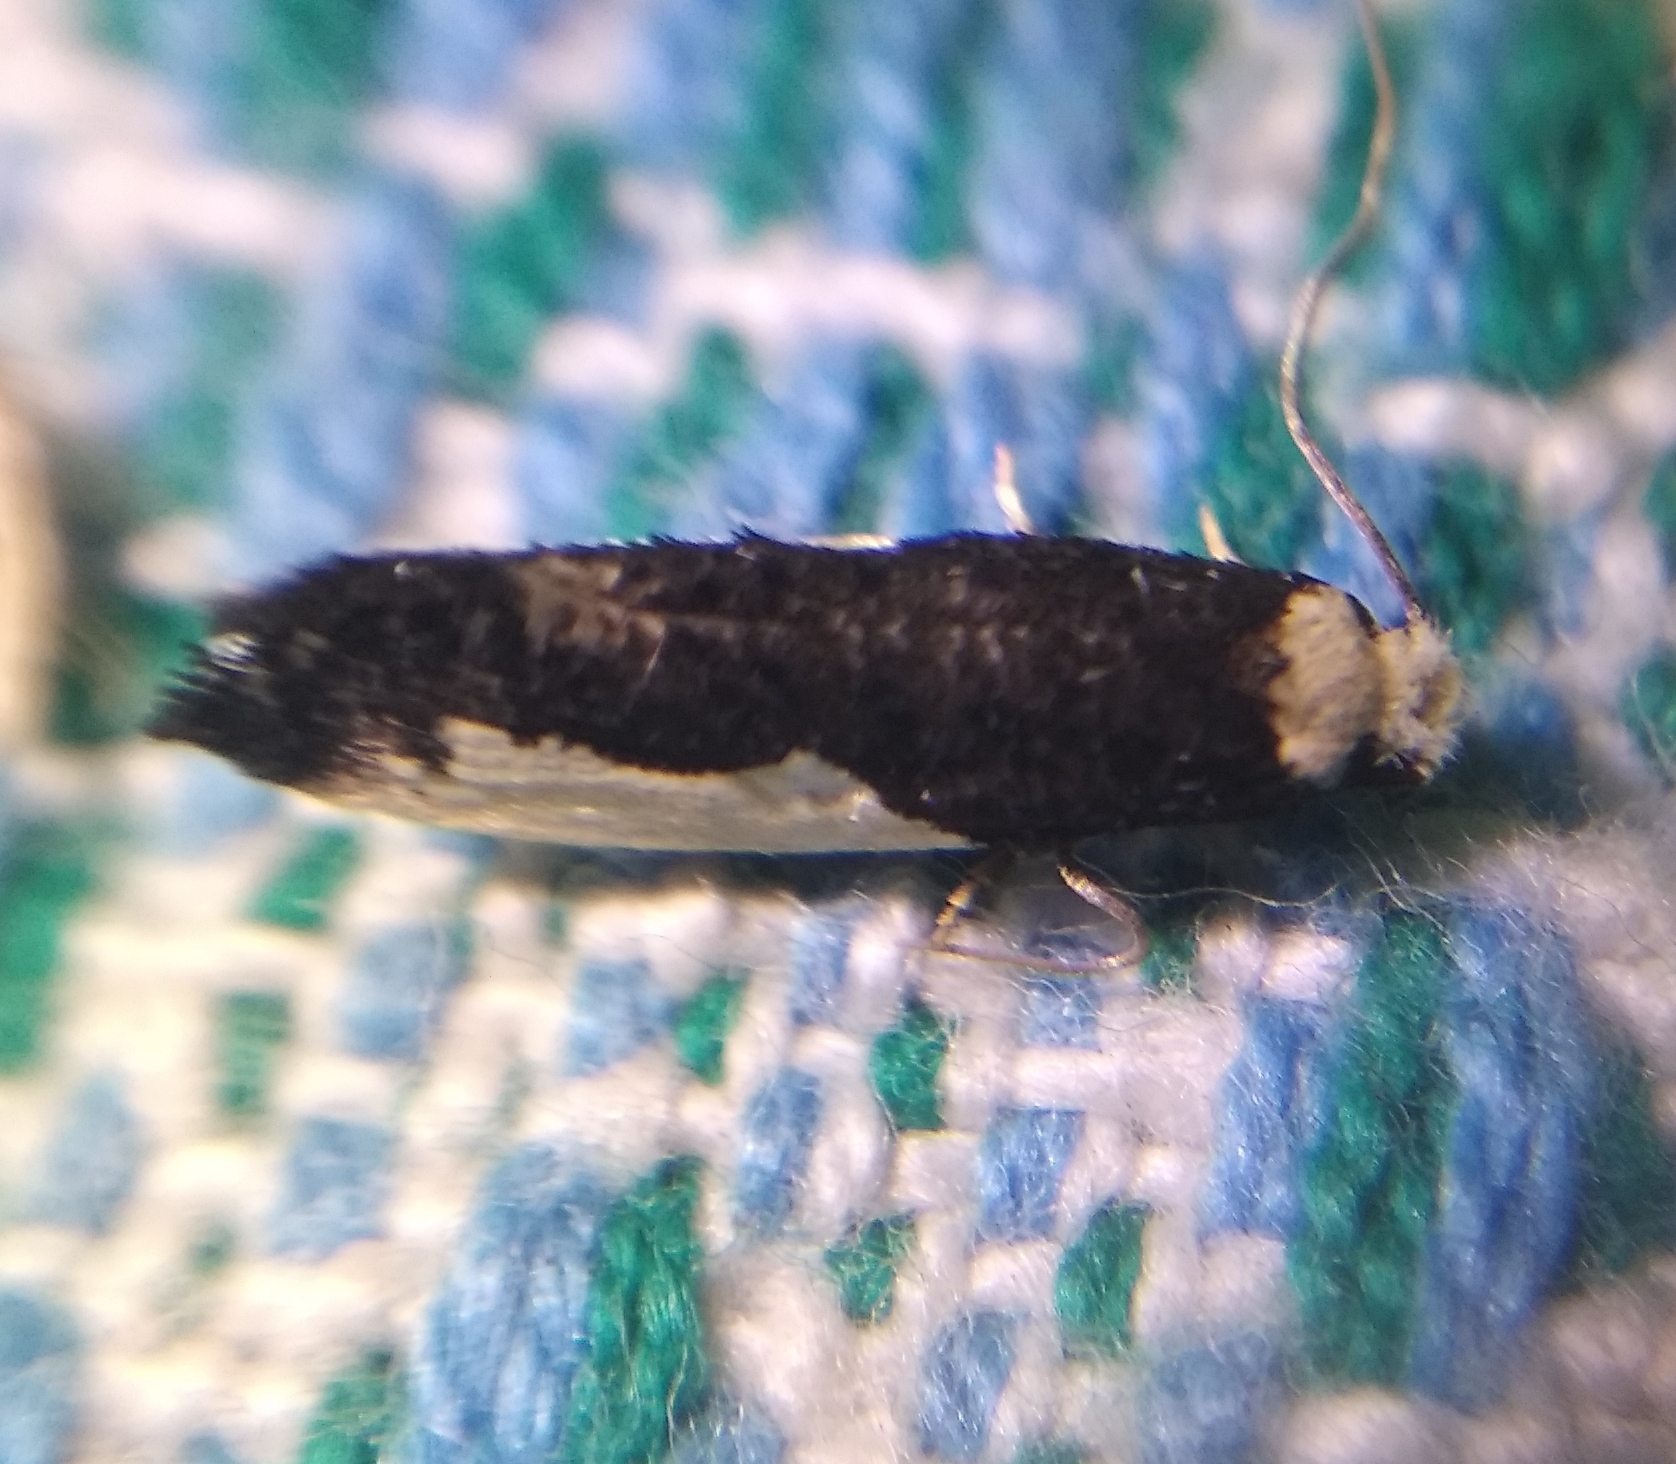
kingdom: Animalia
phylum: Arthropoda
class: Insecta
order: Lepidoptera
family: Tineidae
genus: Monopis
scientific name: Monopis monachella
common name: Moth
